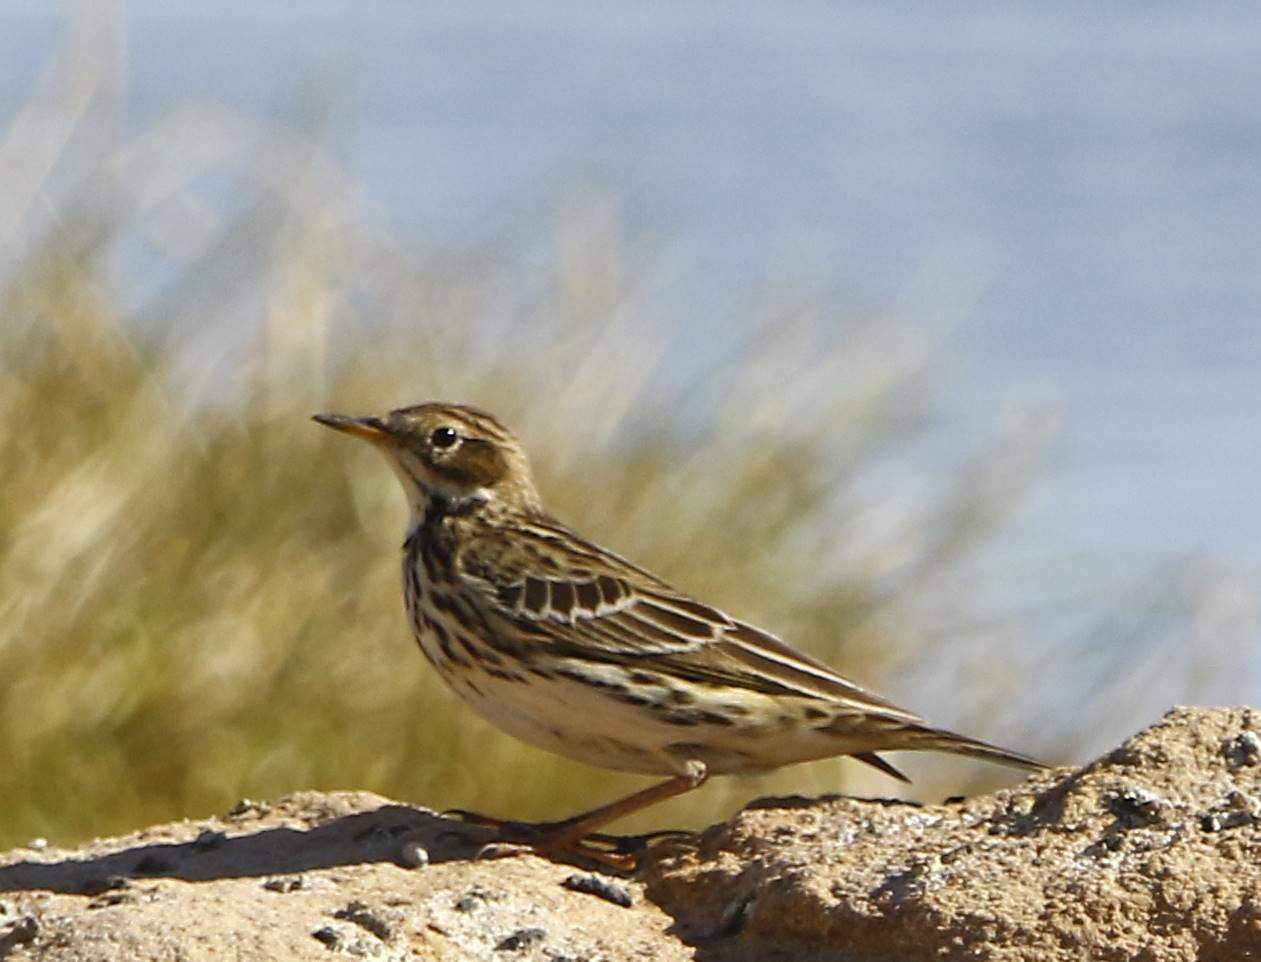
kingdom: Animalia
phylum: Chordata
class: Aves
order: Passeriformes
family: Motacillidae
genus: Anthus
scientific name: Anthus cervinus
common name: Red-throated pipit
